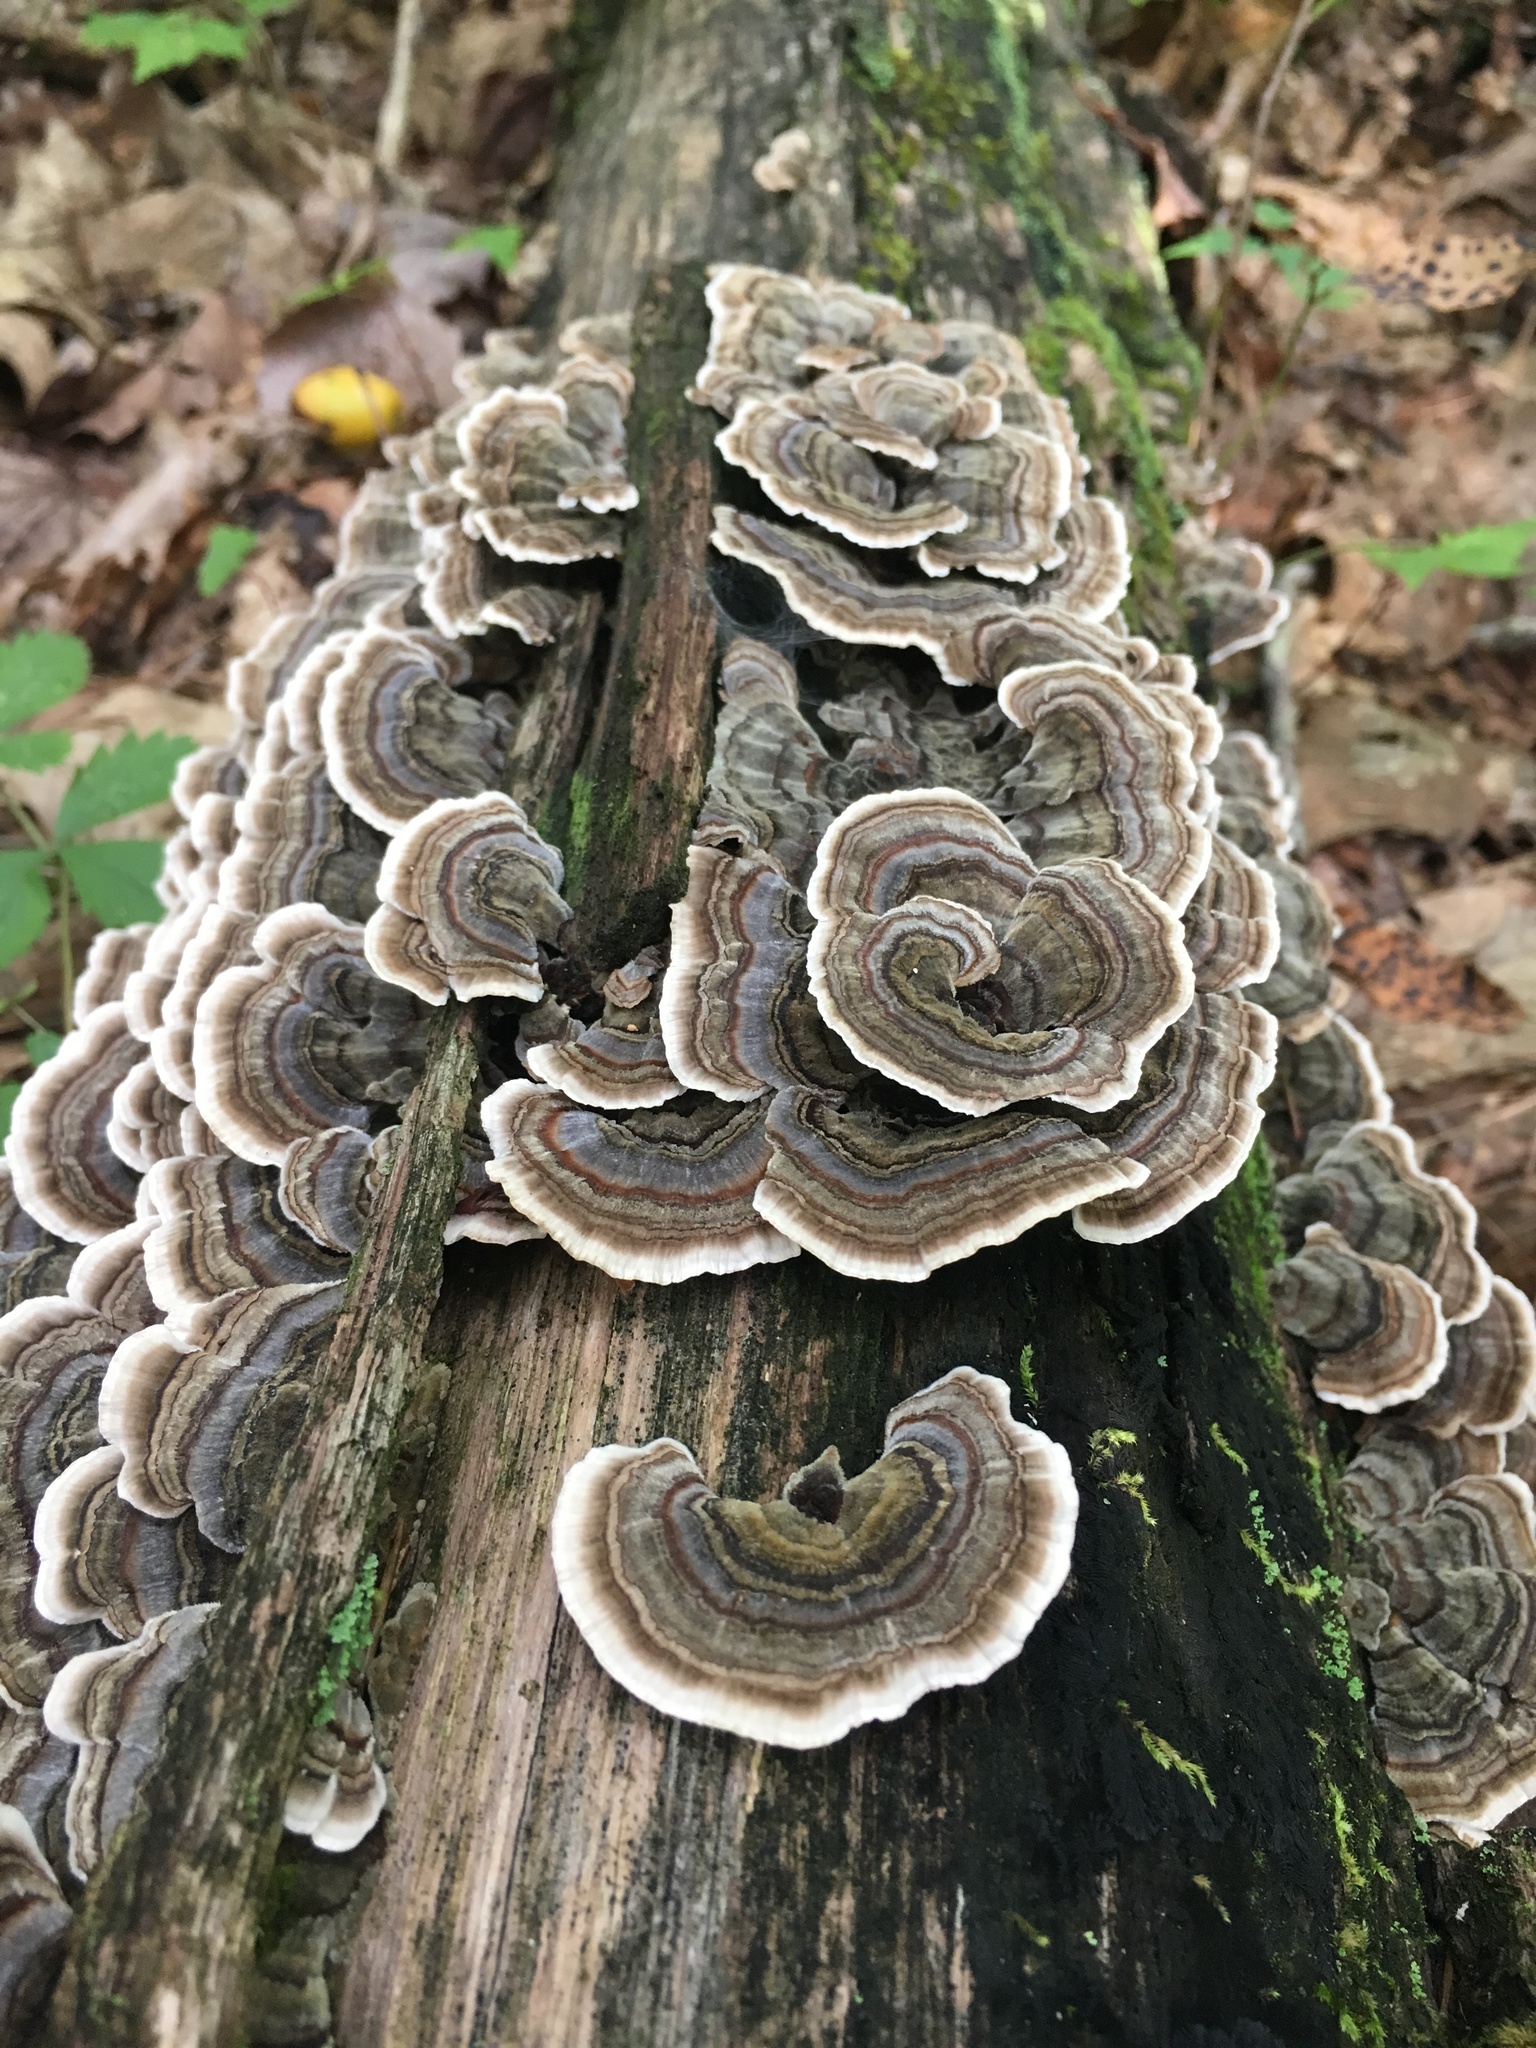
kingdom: Fungi
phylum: Basidiomycota
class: Agaricomycetes
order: Polyporales
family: Polyporaceae
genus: Trametes
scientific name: Trametes versicolor
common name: Turkeytail
